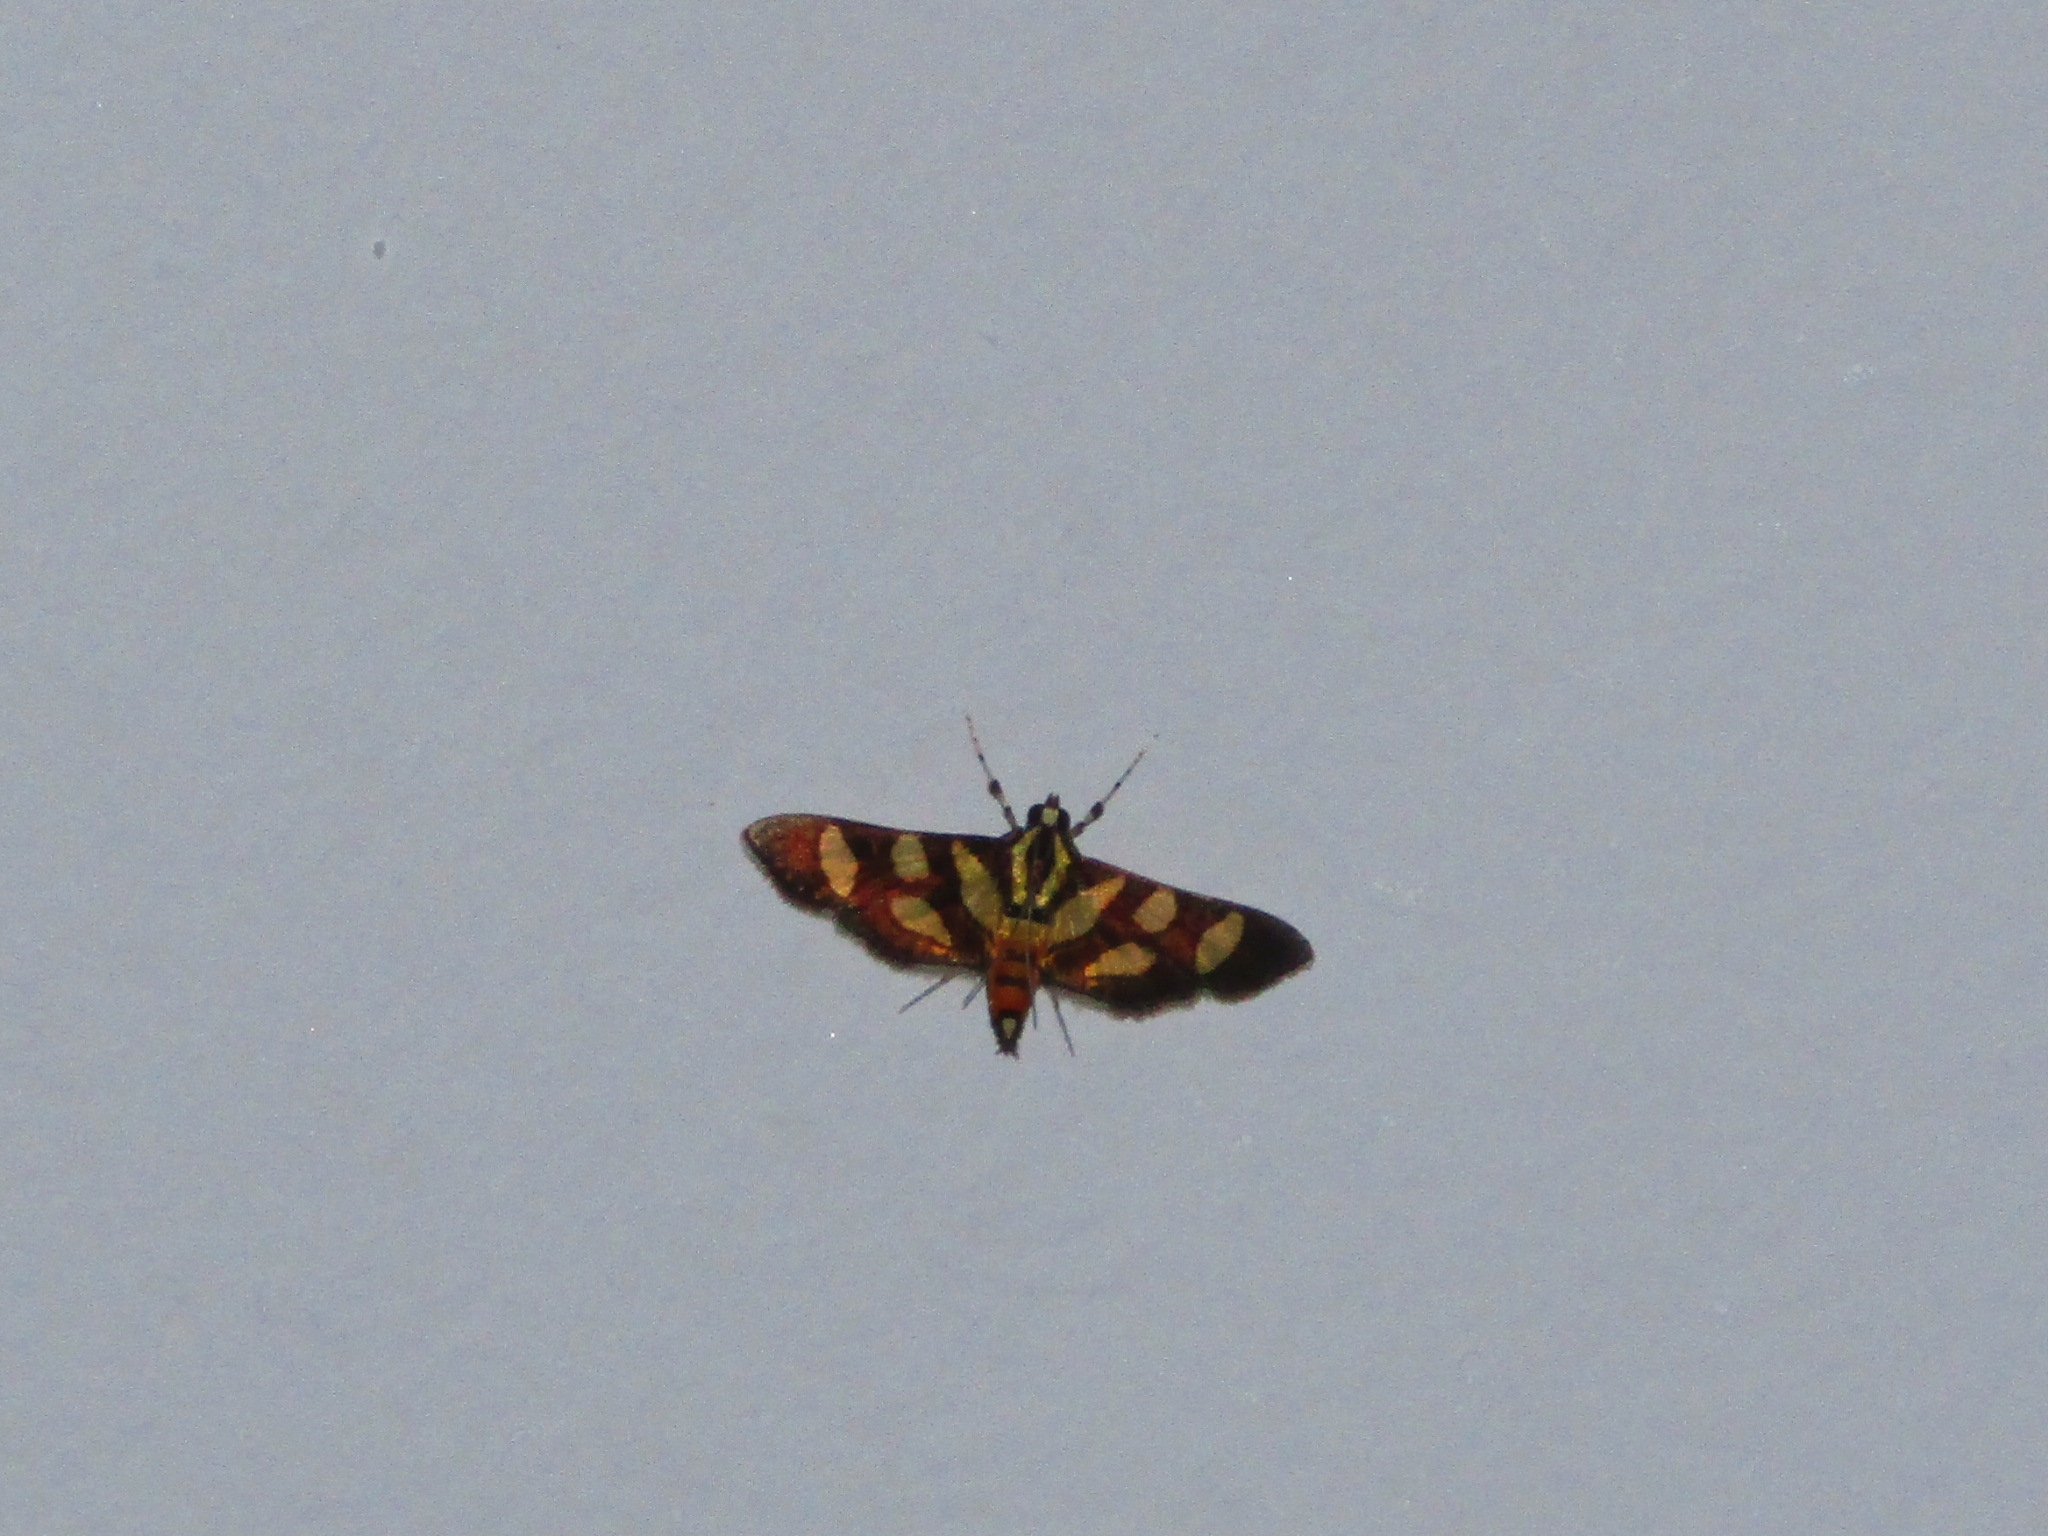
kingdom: Animalia
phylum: Arthropoda
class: Insecta
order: Lepidoptera
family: Crambidae
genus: Syngamia
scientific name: Syngamia florella
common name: Orange-spotted flower moth
